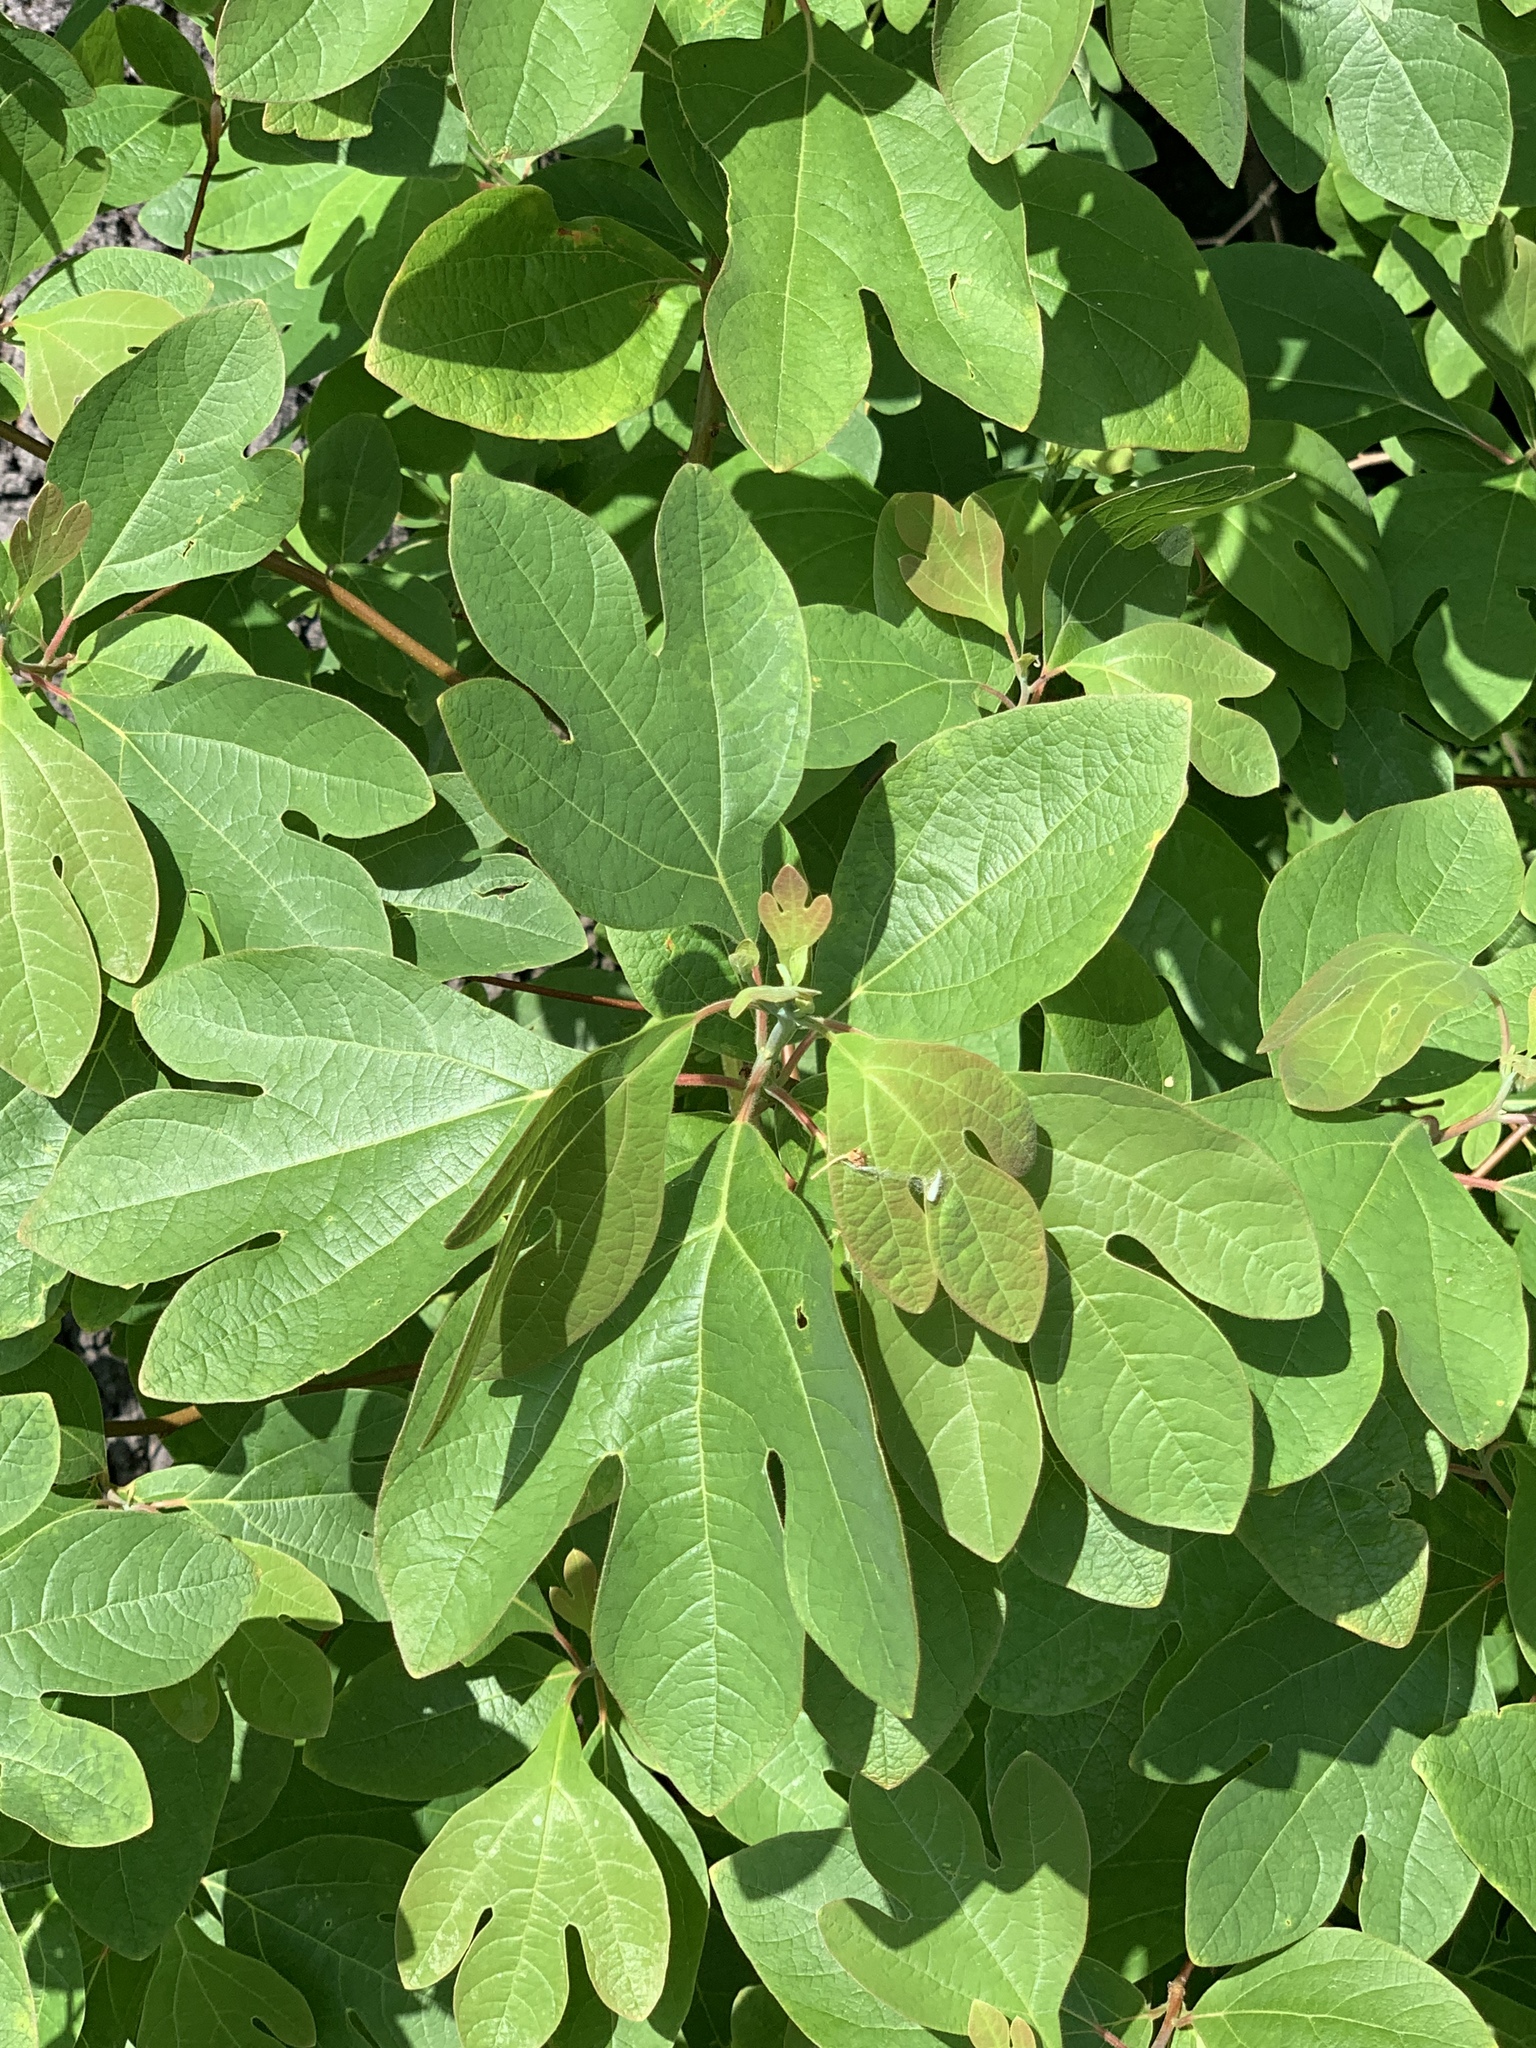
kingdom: Plantae
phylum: Tracheophyta
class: Magnoliopsida
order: Laurales
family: Lauraceae
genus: Sassafras
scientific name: Sassafras albidum
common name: Sassafras
